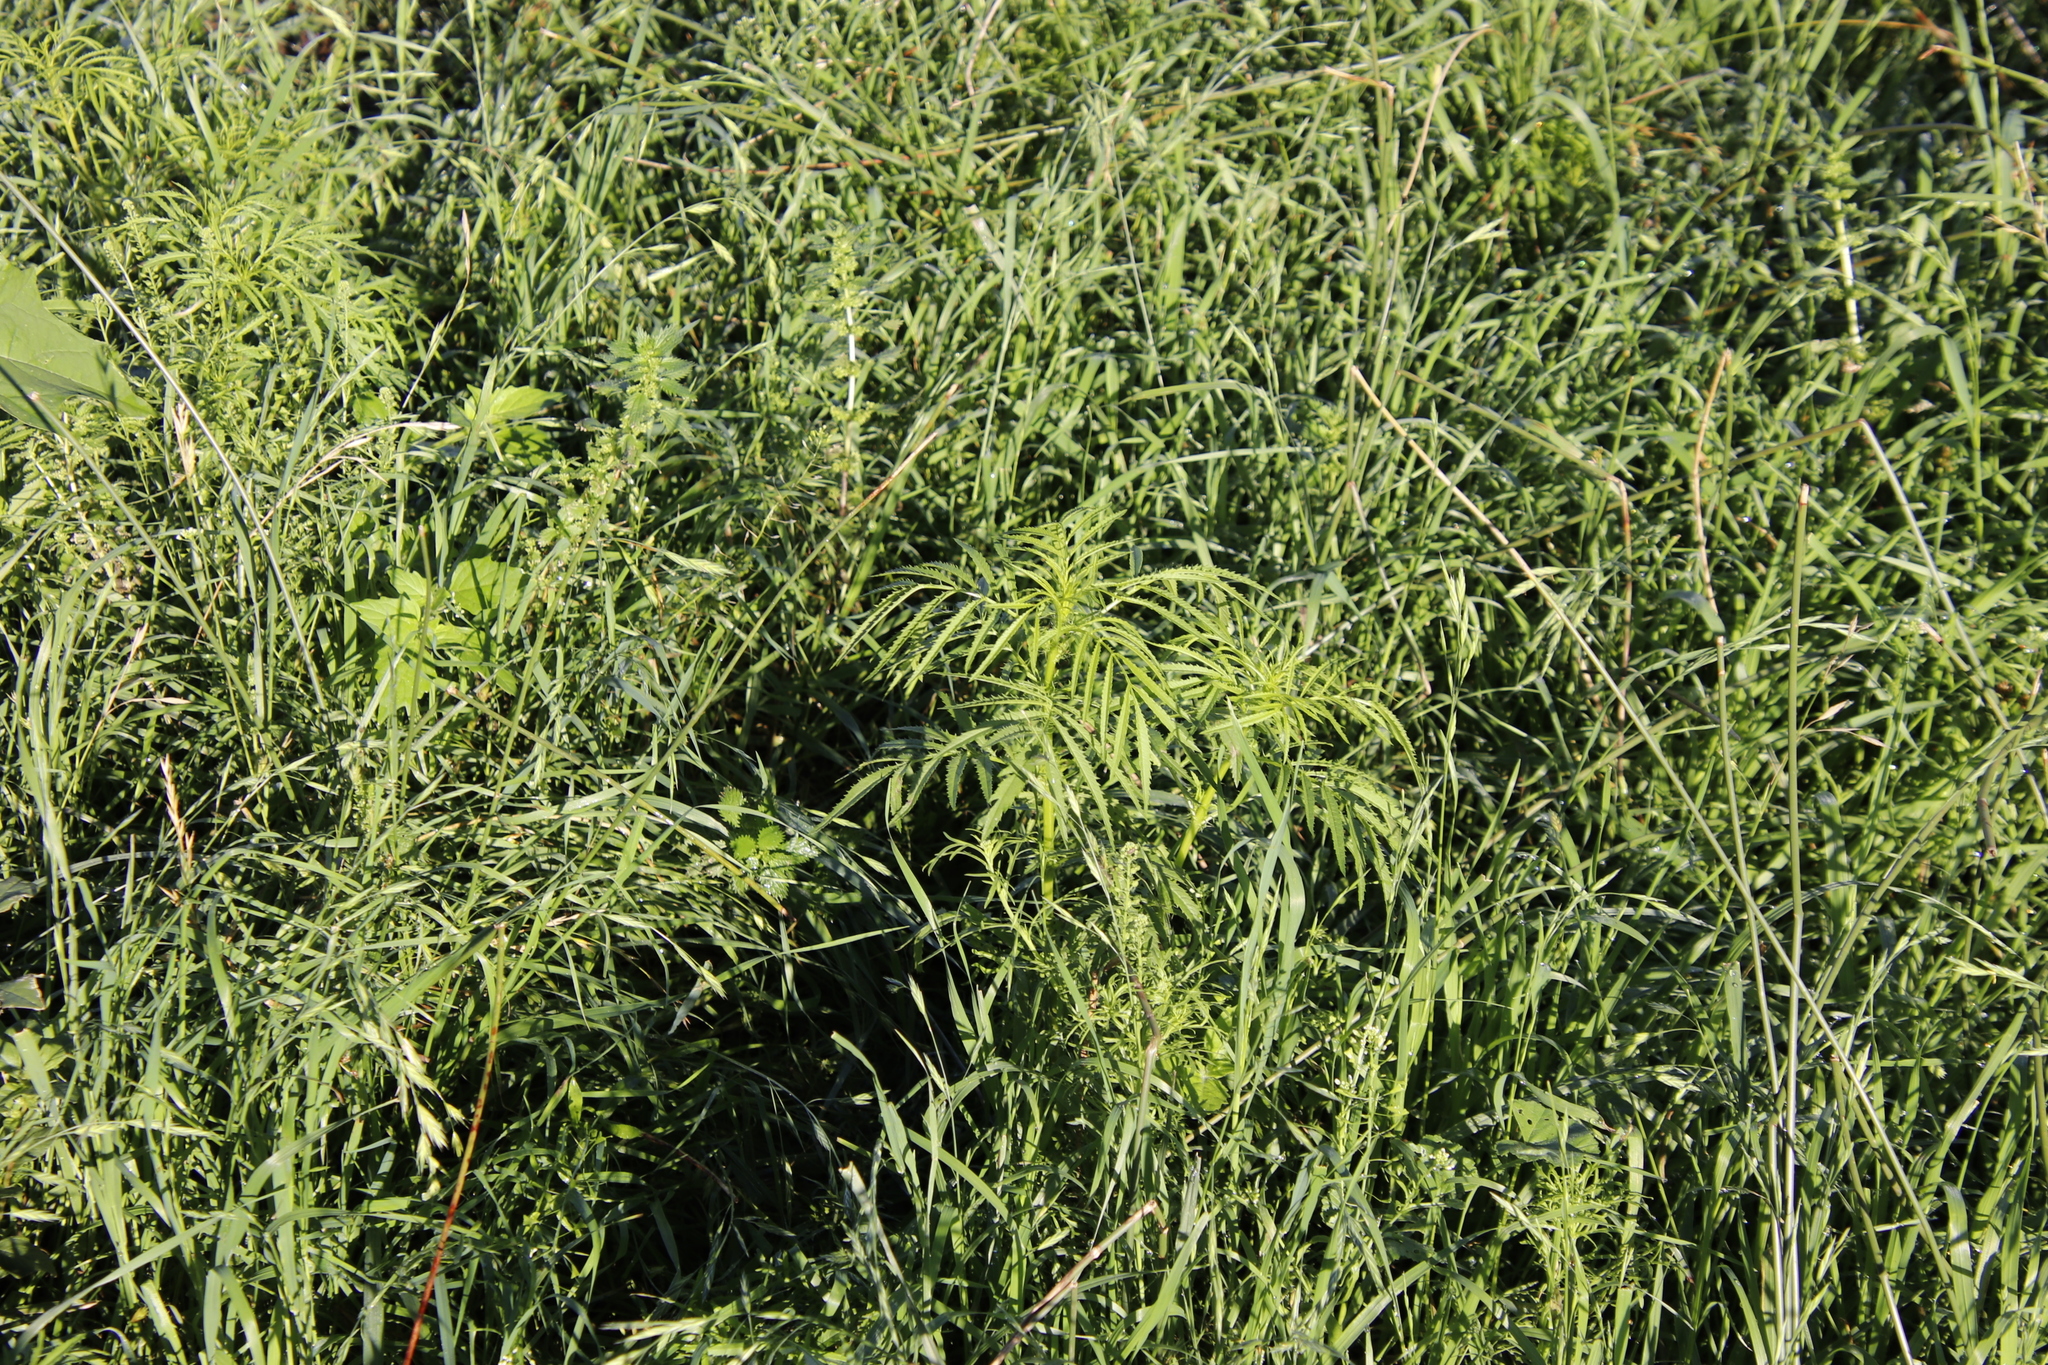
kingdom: Plantae
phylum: Tracheophyta
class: Magnoliopsida
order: Asterales
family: Asteraceae
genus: Tagetes
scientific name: Tagetes minuta
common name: Muster john henry
